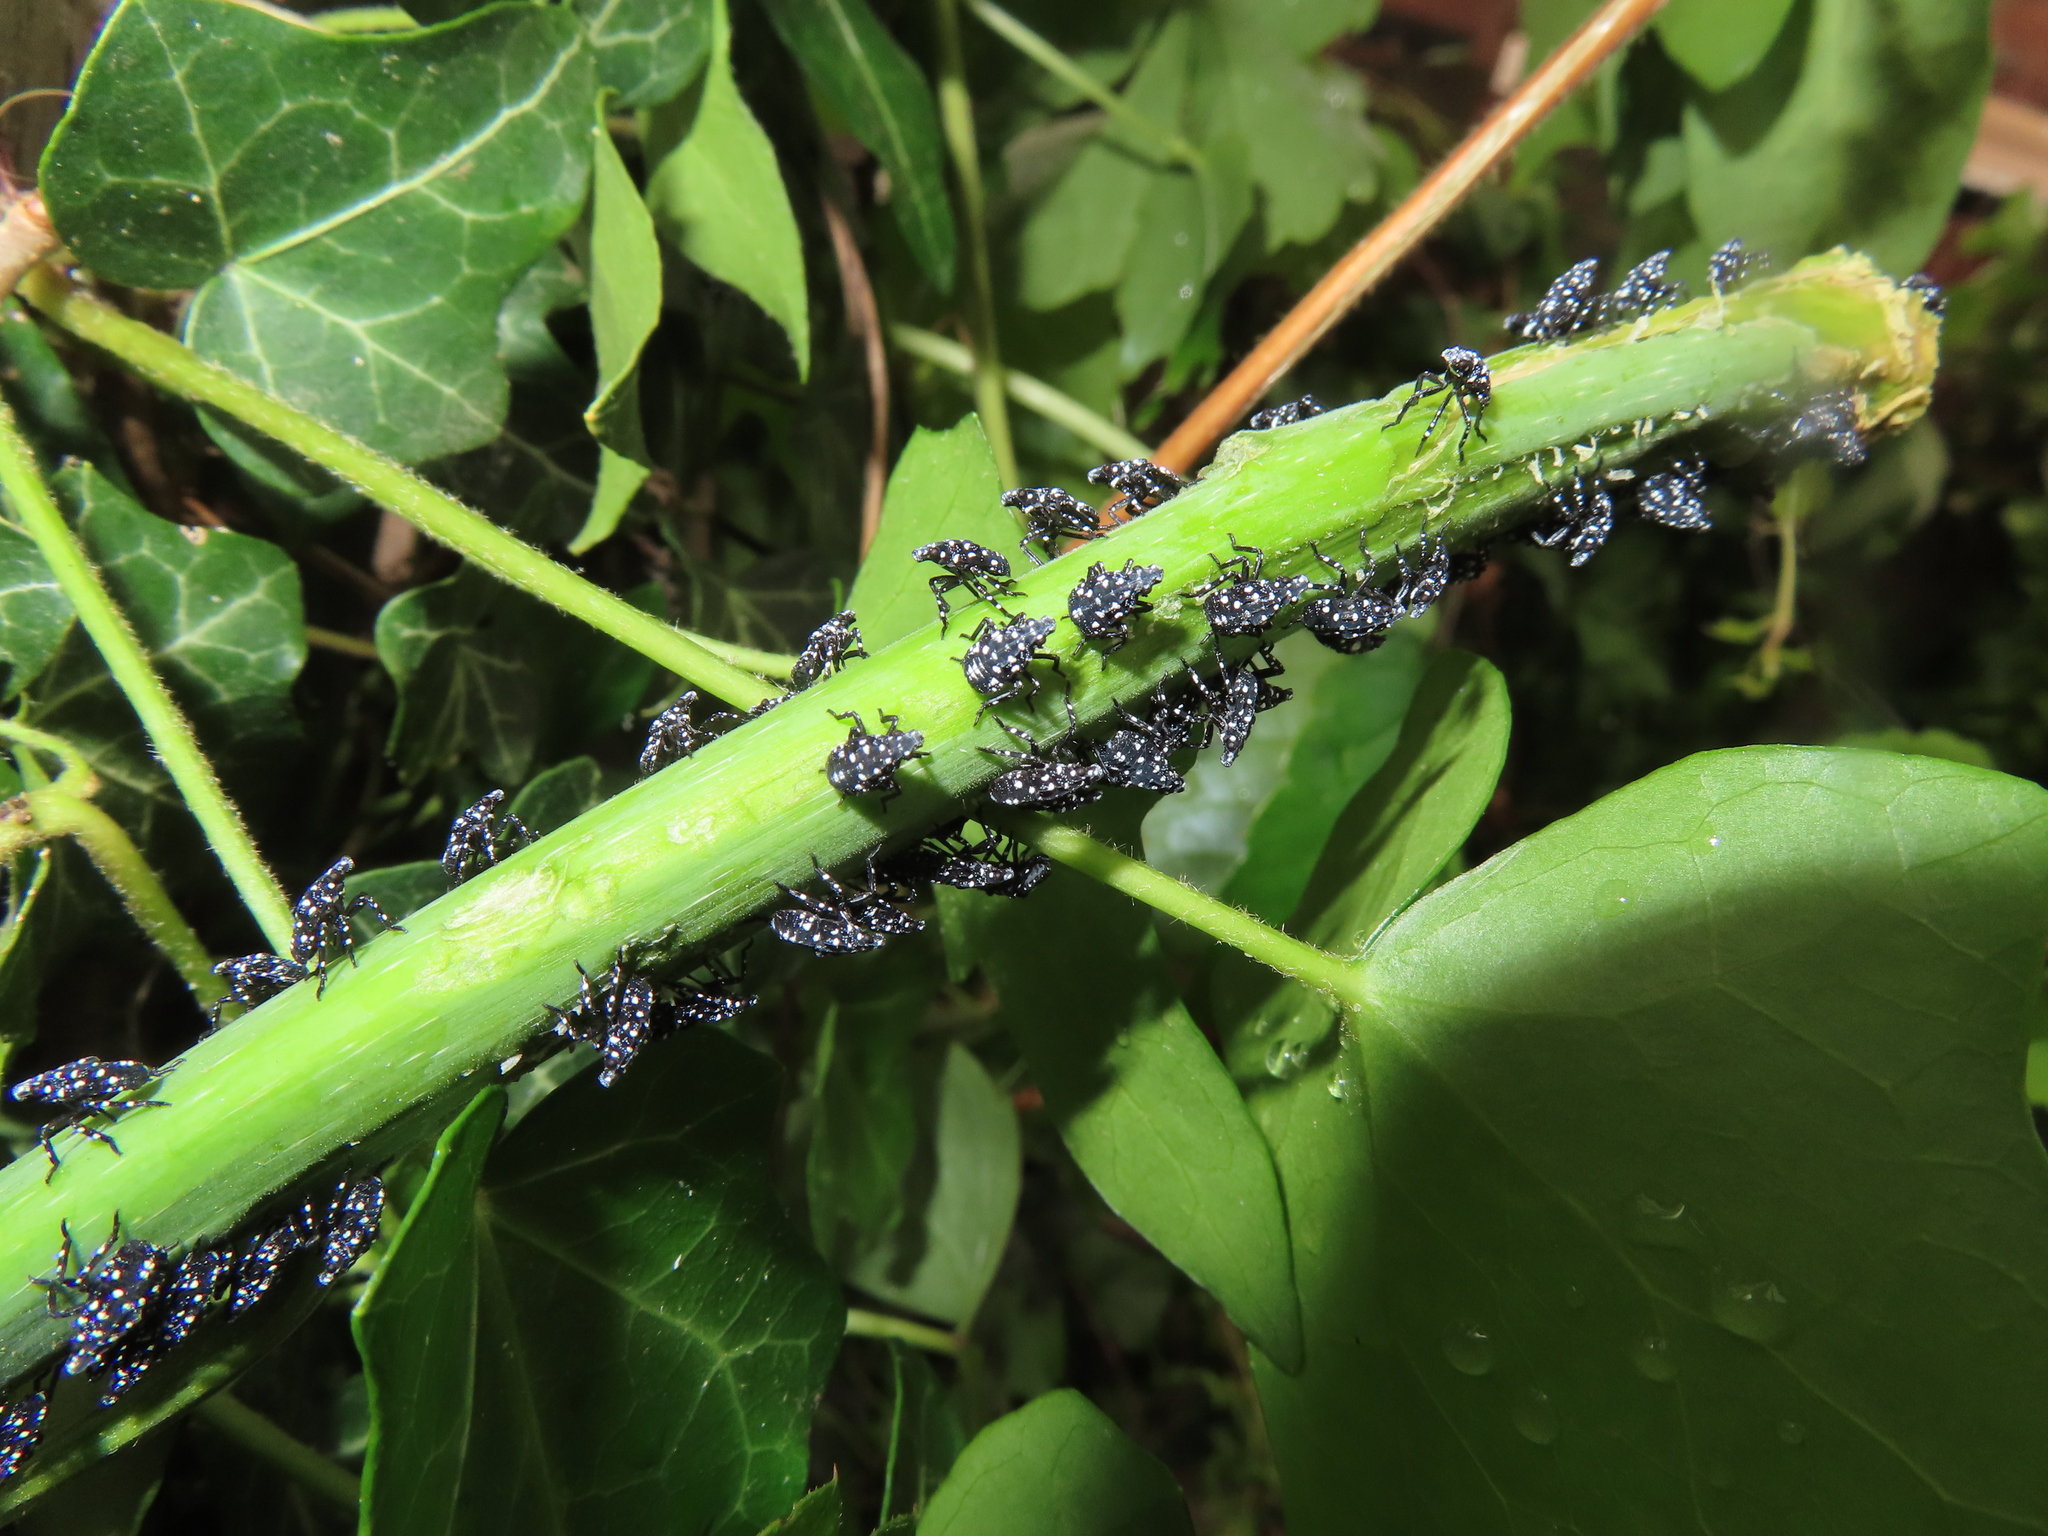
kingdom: Animalia
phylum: Arthropoda
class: Insecta
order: Hemiptera
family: Fulgoridae
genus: Lycorma
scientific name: Lycorma delicatula
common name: Spotted lanternfly
